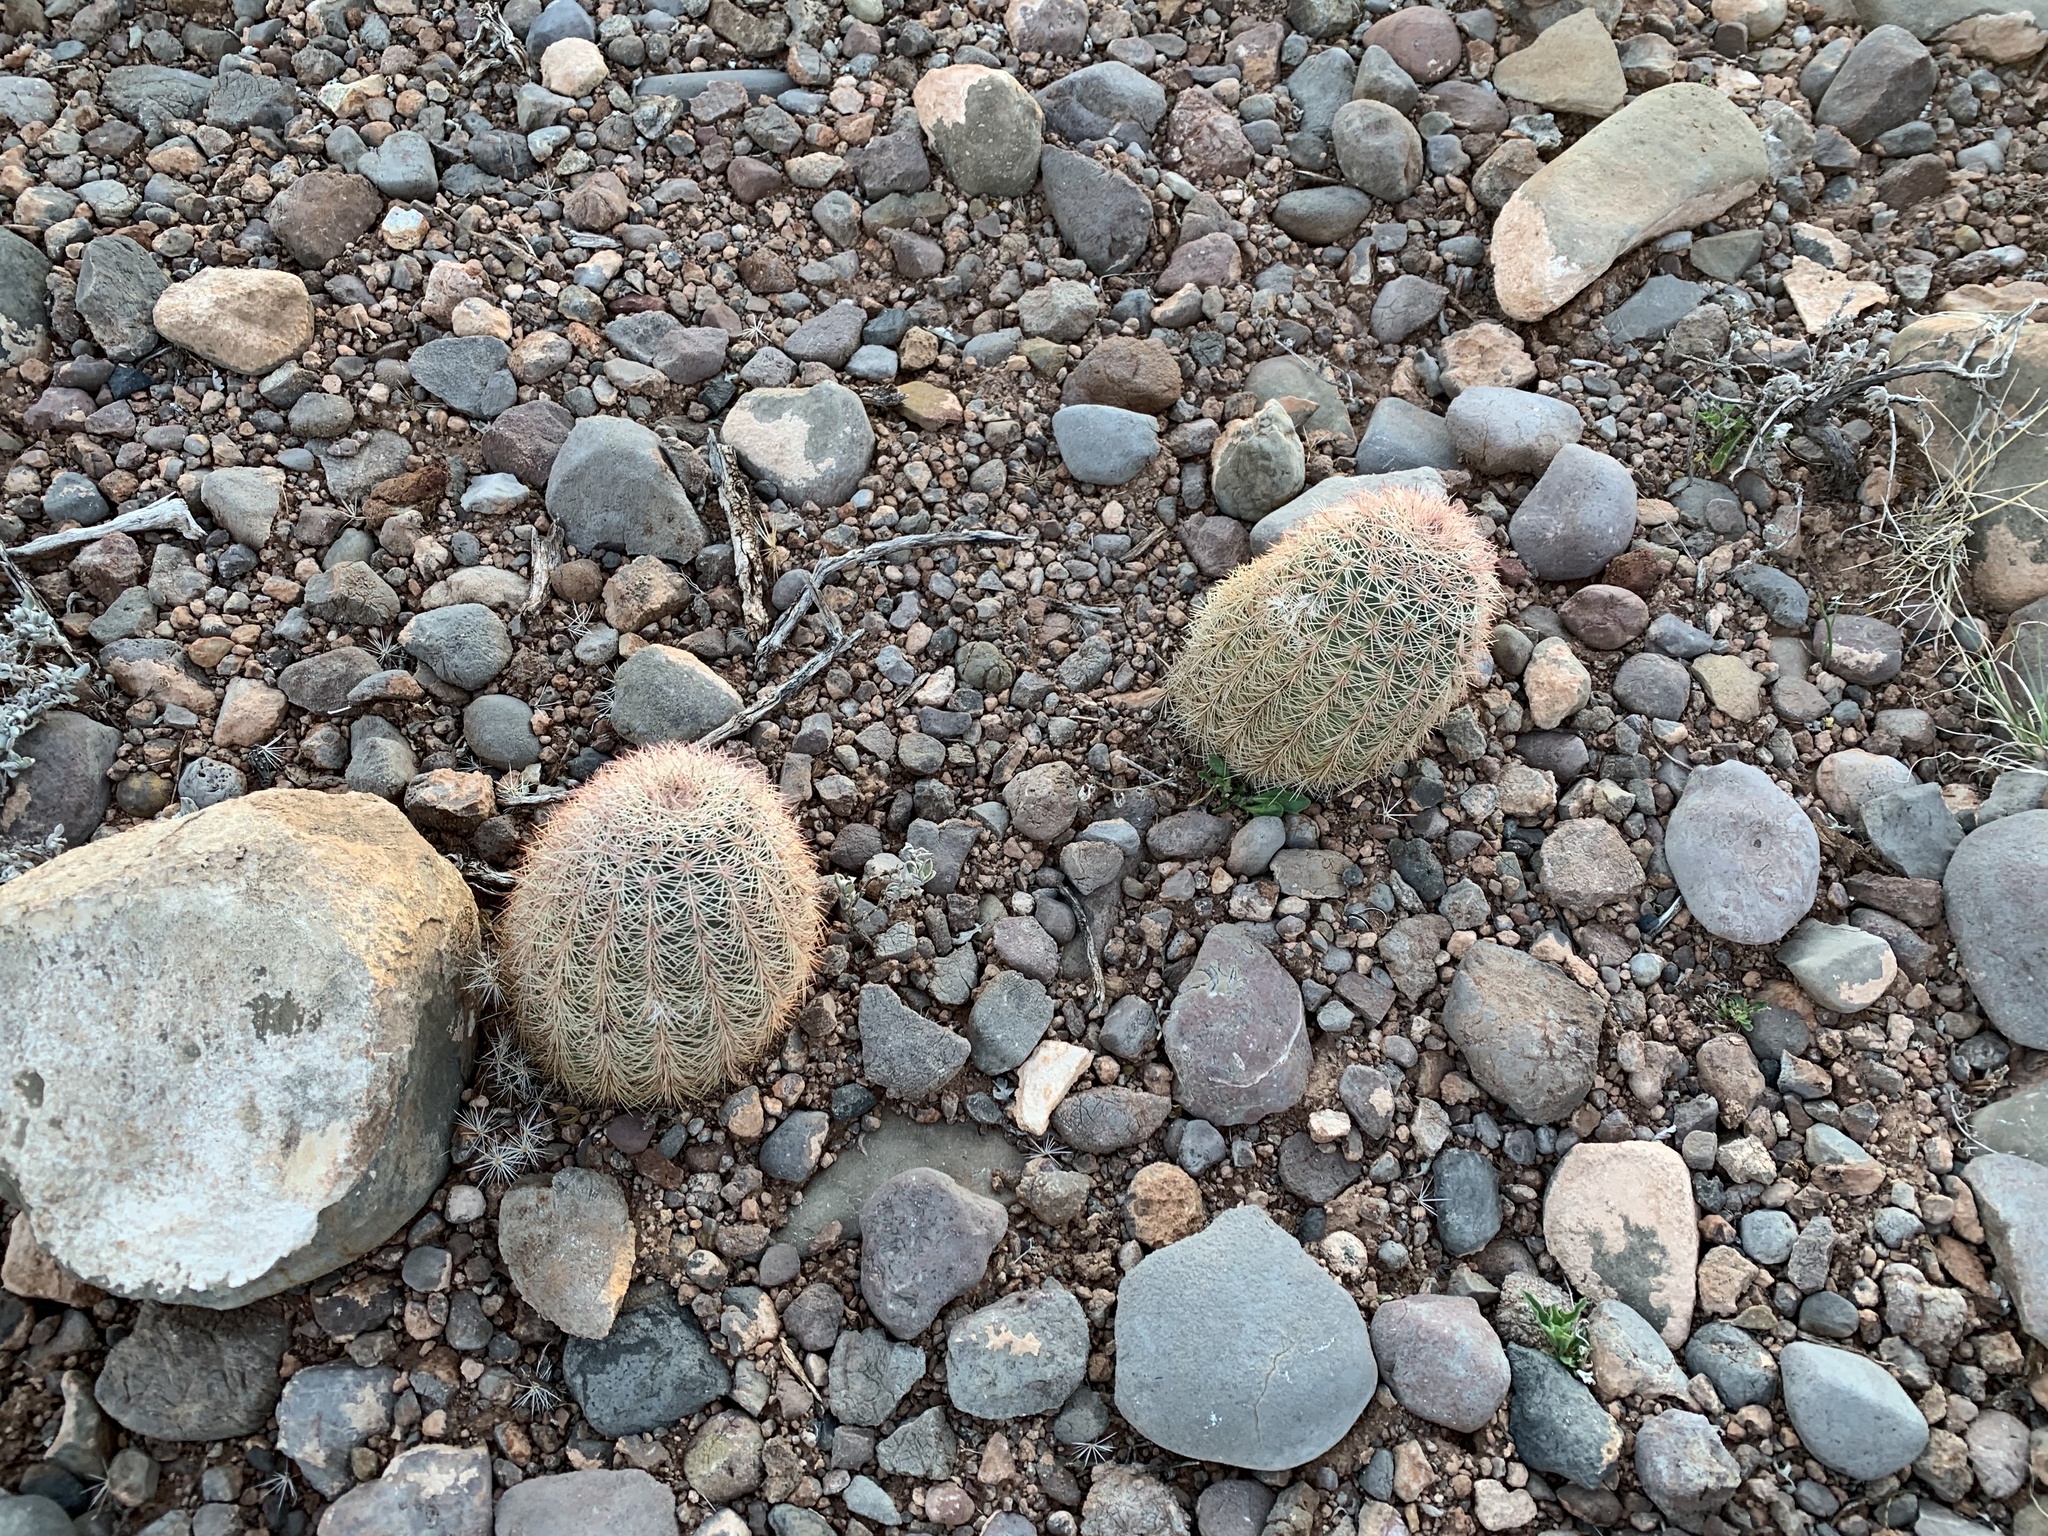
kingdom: Plantae
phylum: Tracheophyta
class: Magnoliopsida
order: Caryophyllales
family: Cactaceae
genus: Echinocereus
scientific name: Echinocereus dasyacanthus
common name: Spiny hedgehog cactus
